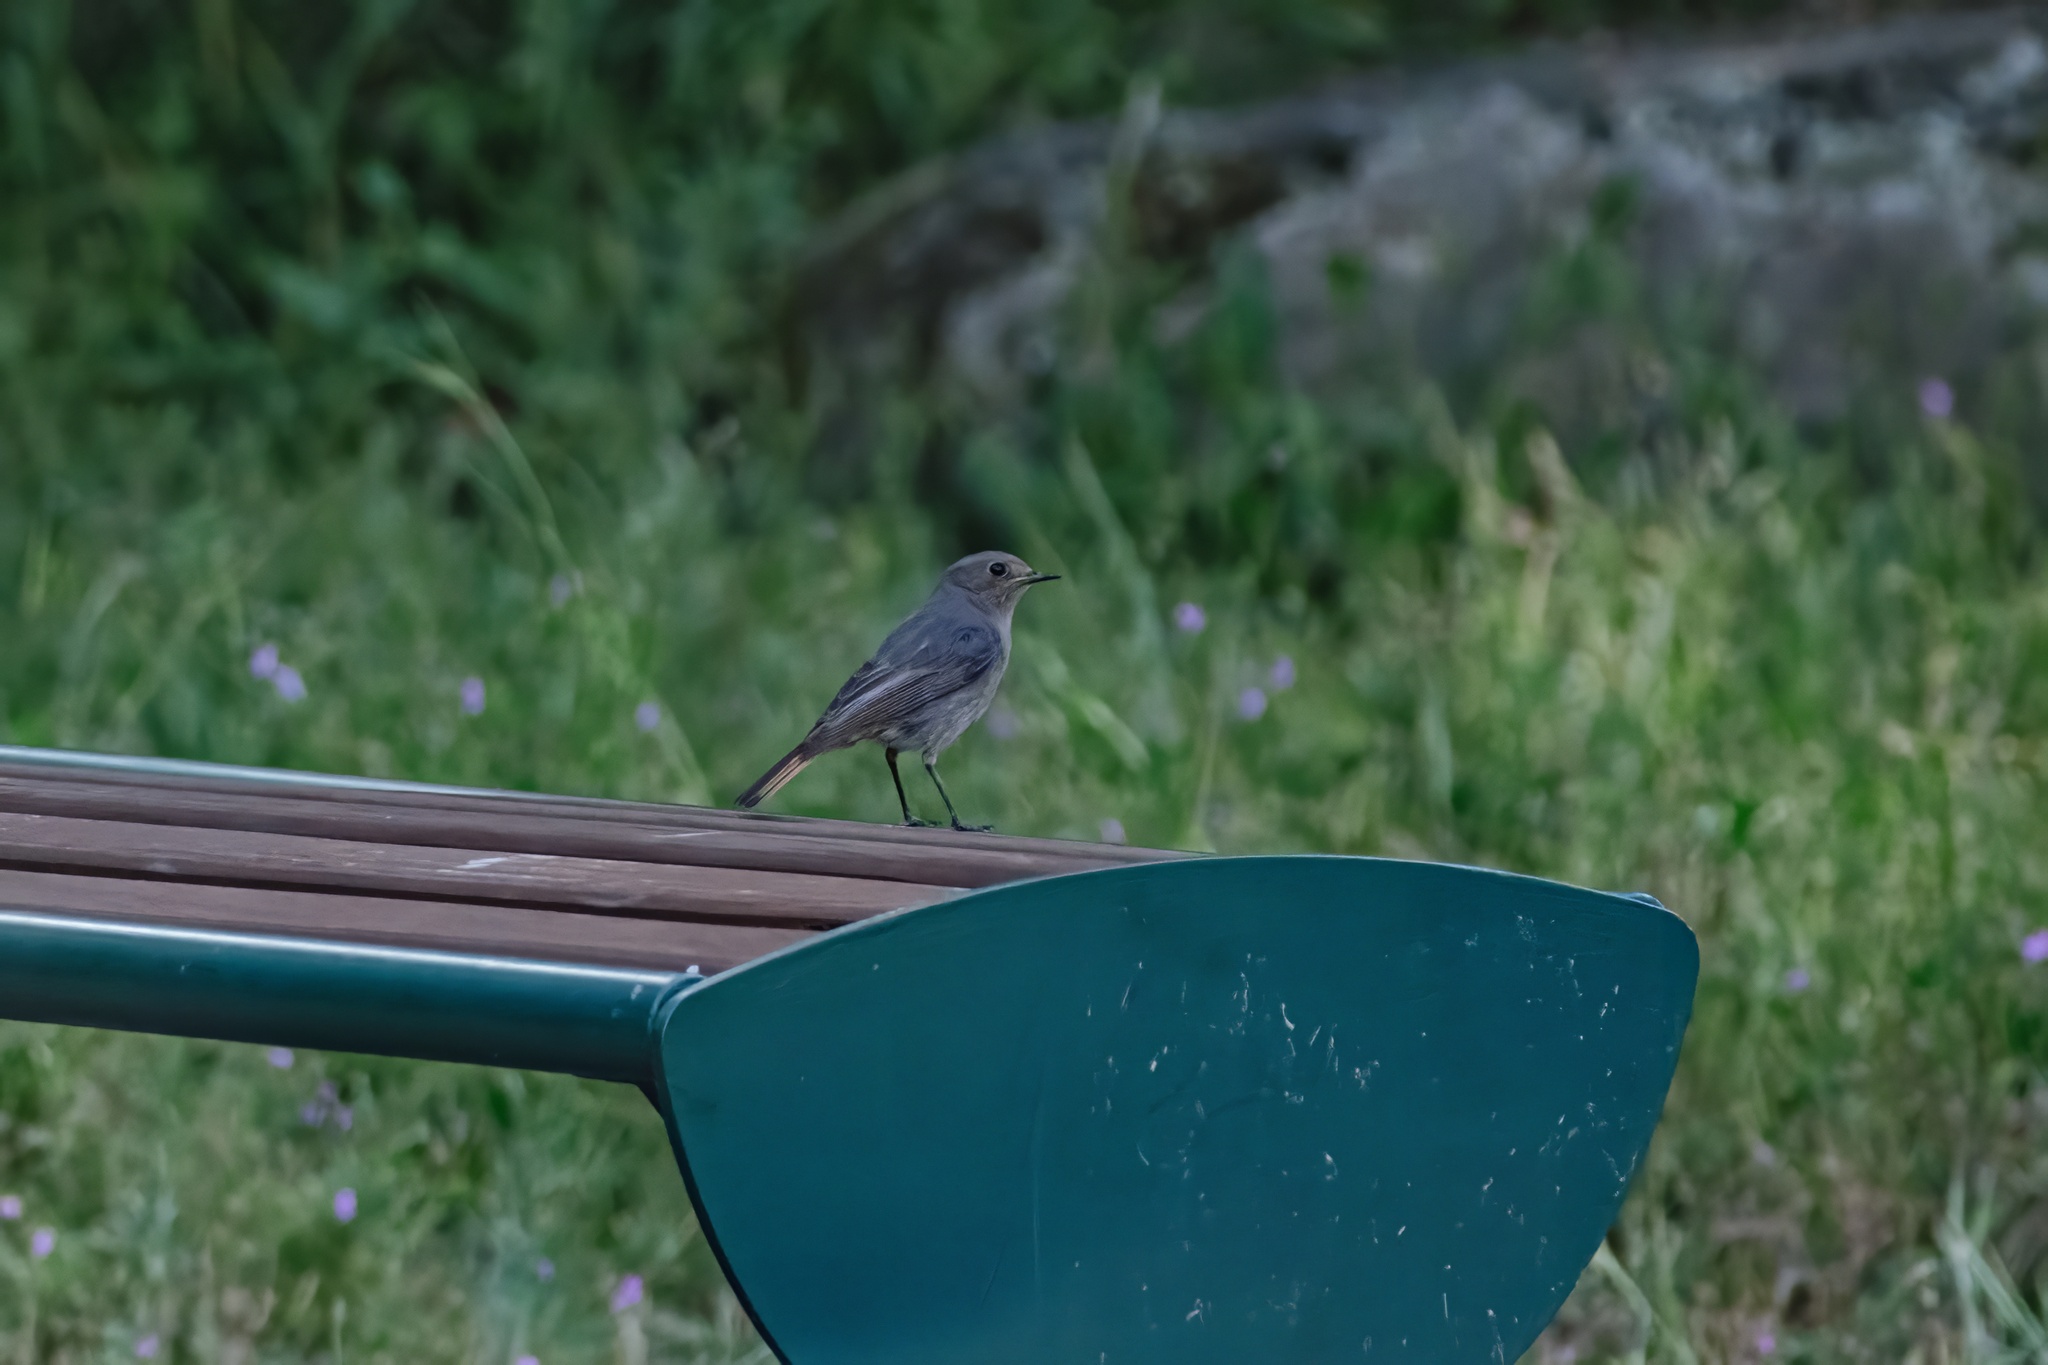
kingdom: Animalia
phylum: Chordata
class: Aves
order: Passeriformes
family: Muscicapidae
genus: Phoenicurus
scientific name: Phoenicurus ochruros
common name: Black redstart
